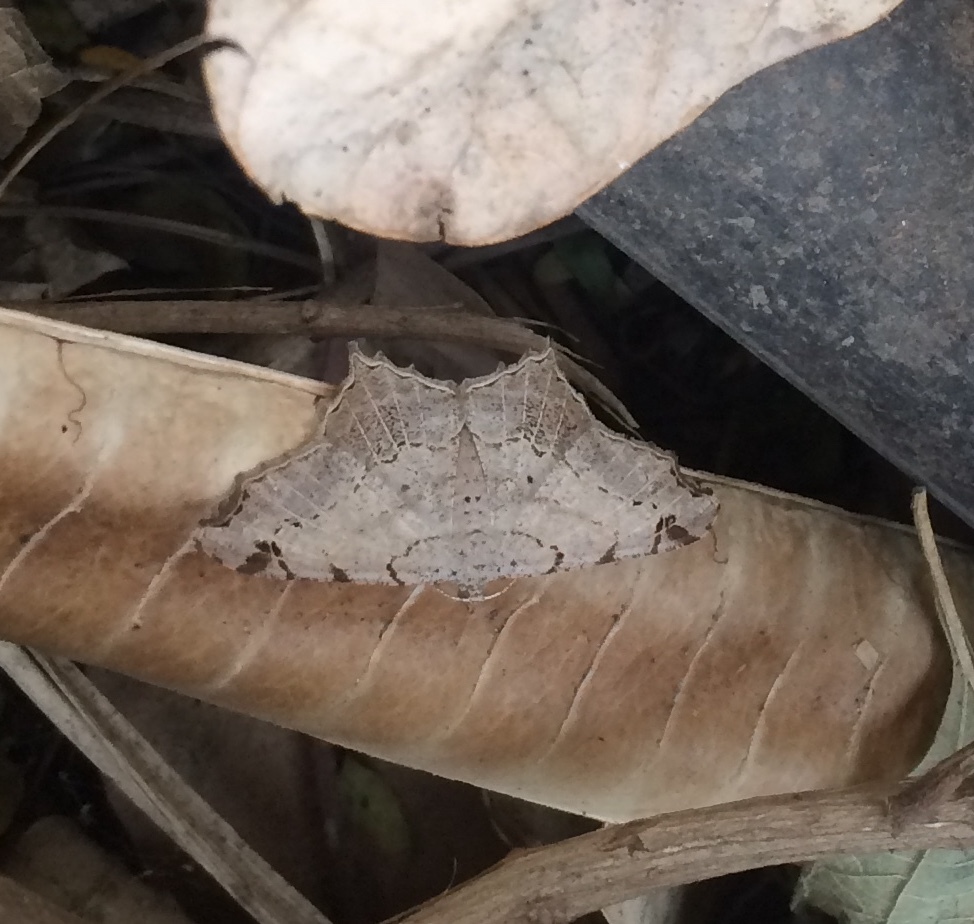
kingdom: Animalia
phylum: Arthropoda
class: Insecta
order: Lepidoptera
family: Geometridae
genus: Chiasmia
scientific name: Chiasmia emersaria
